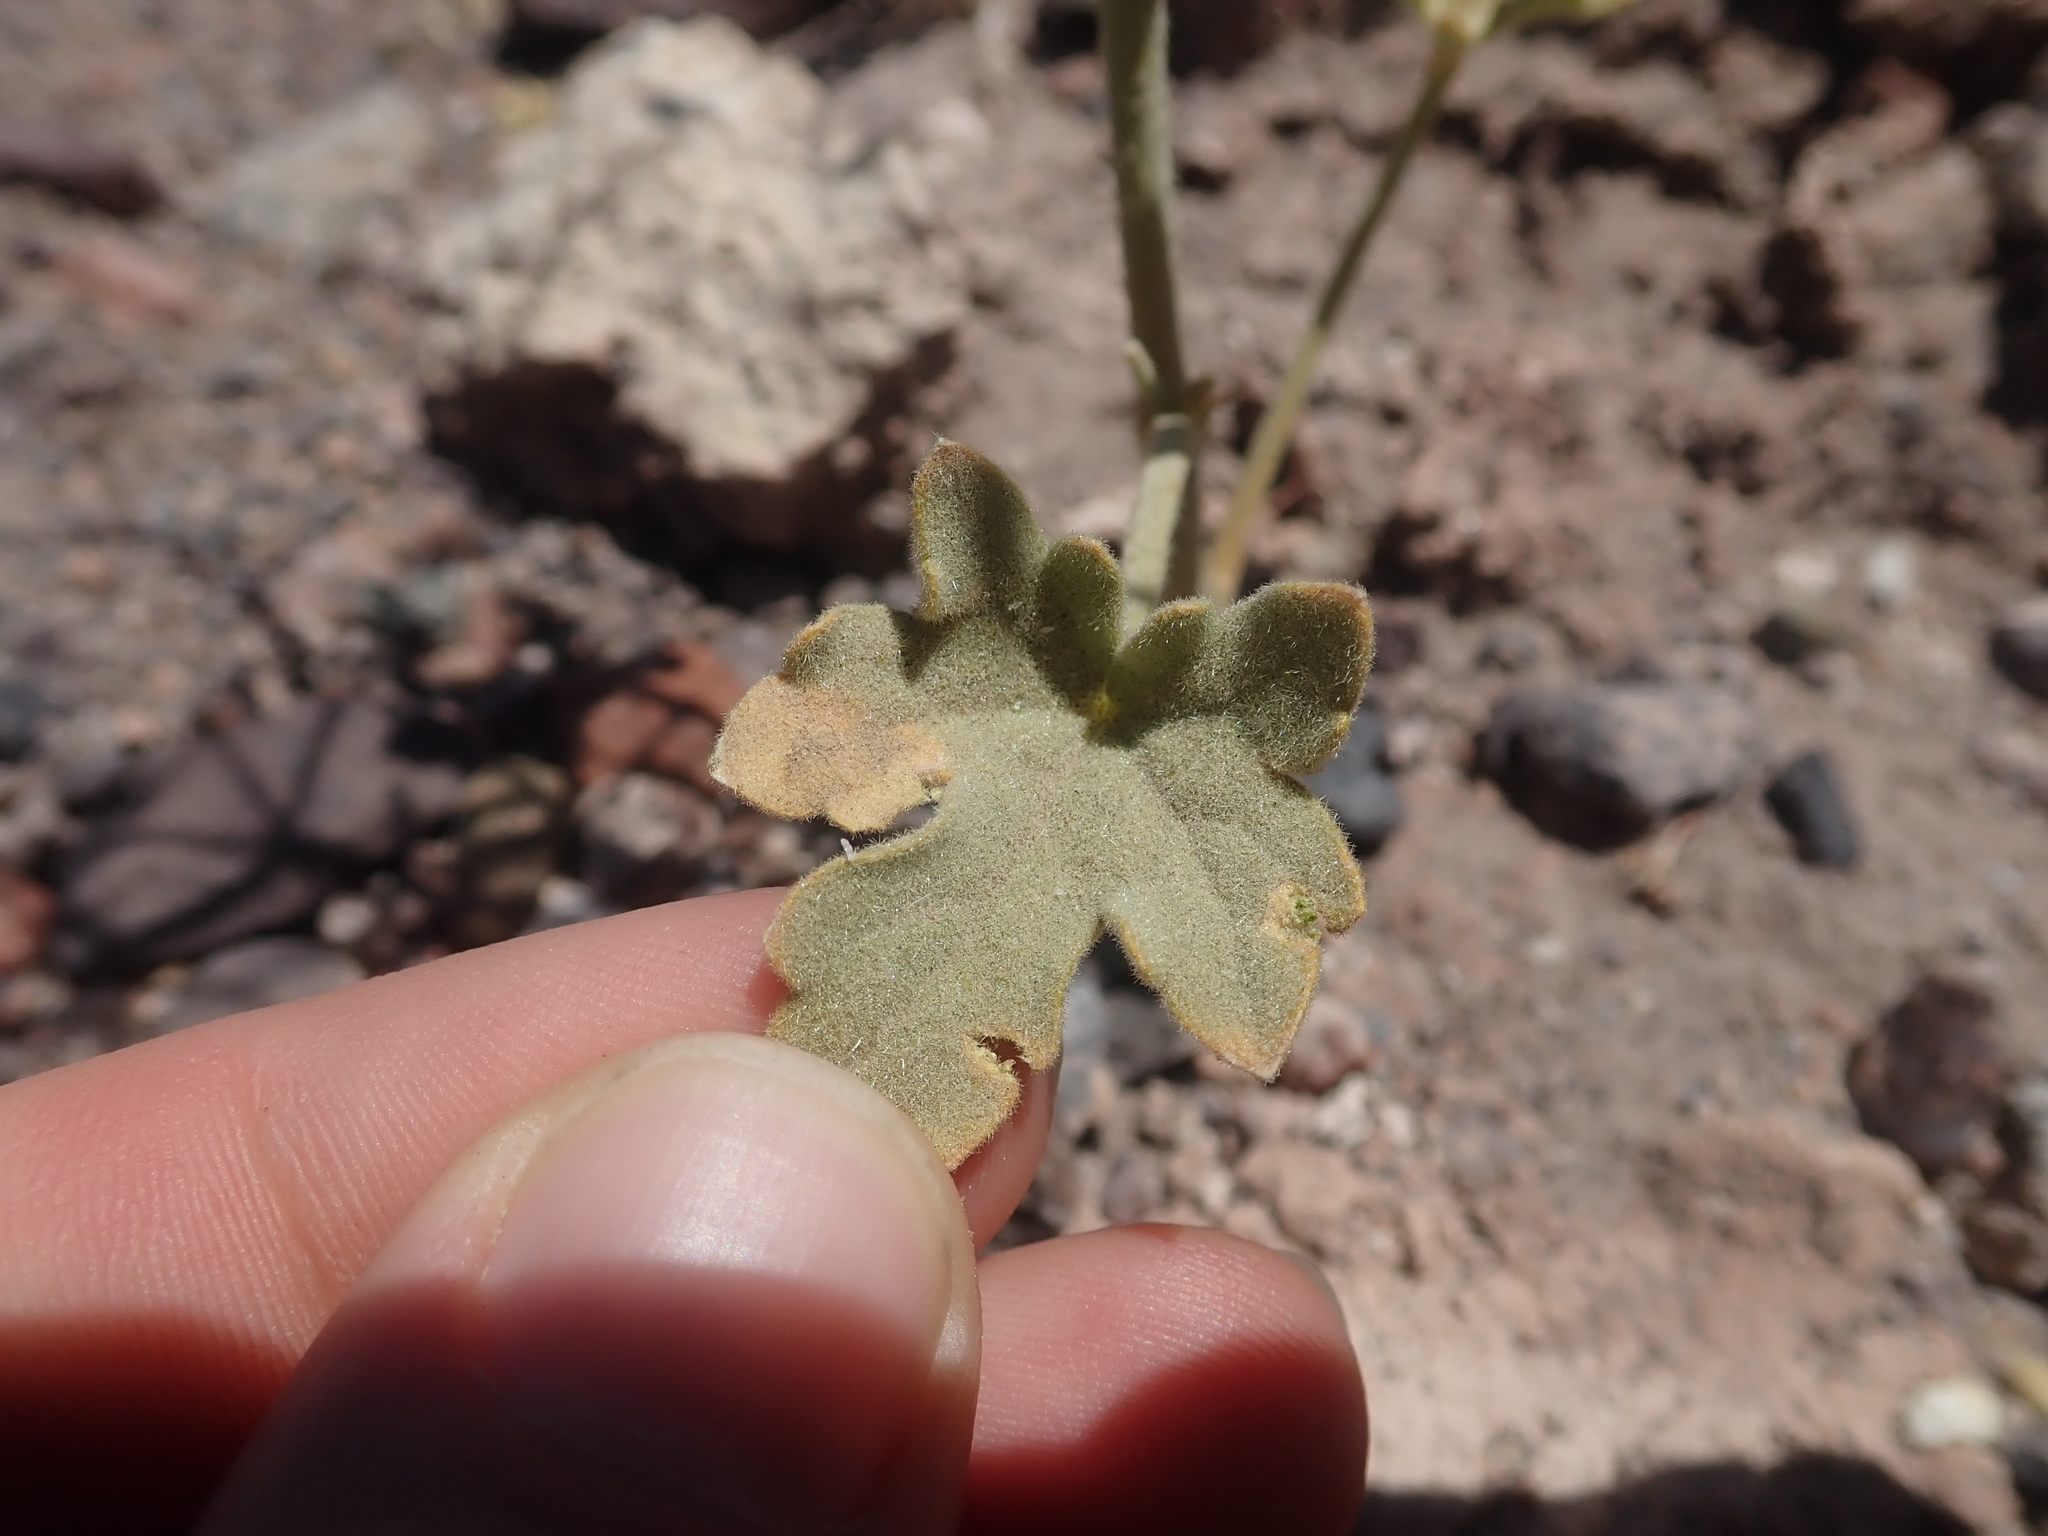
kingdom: Plantae
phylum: Tracheophyta
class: Magnoliopsida
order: Boraginales
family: Ehretiaceae
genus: Tiquilia
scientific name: Tiquilia atacamensis
